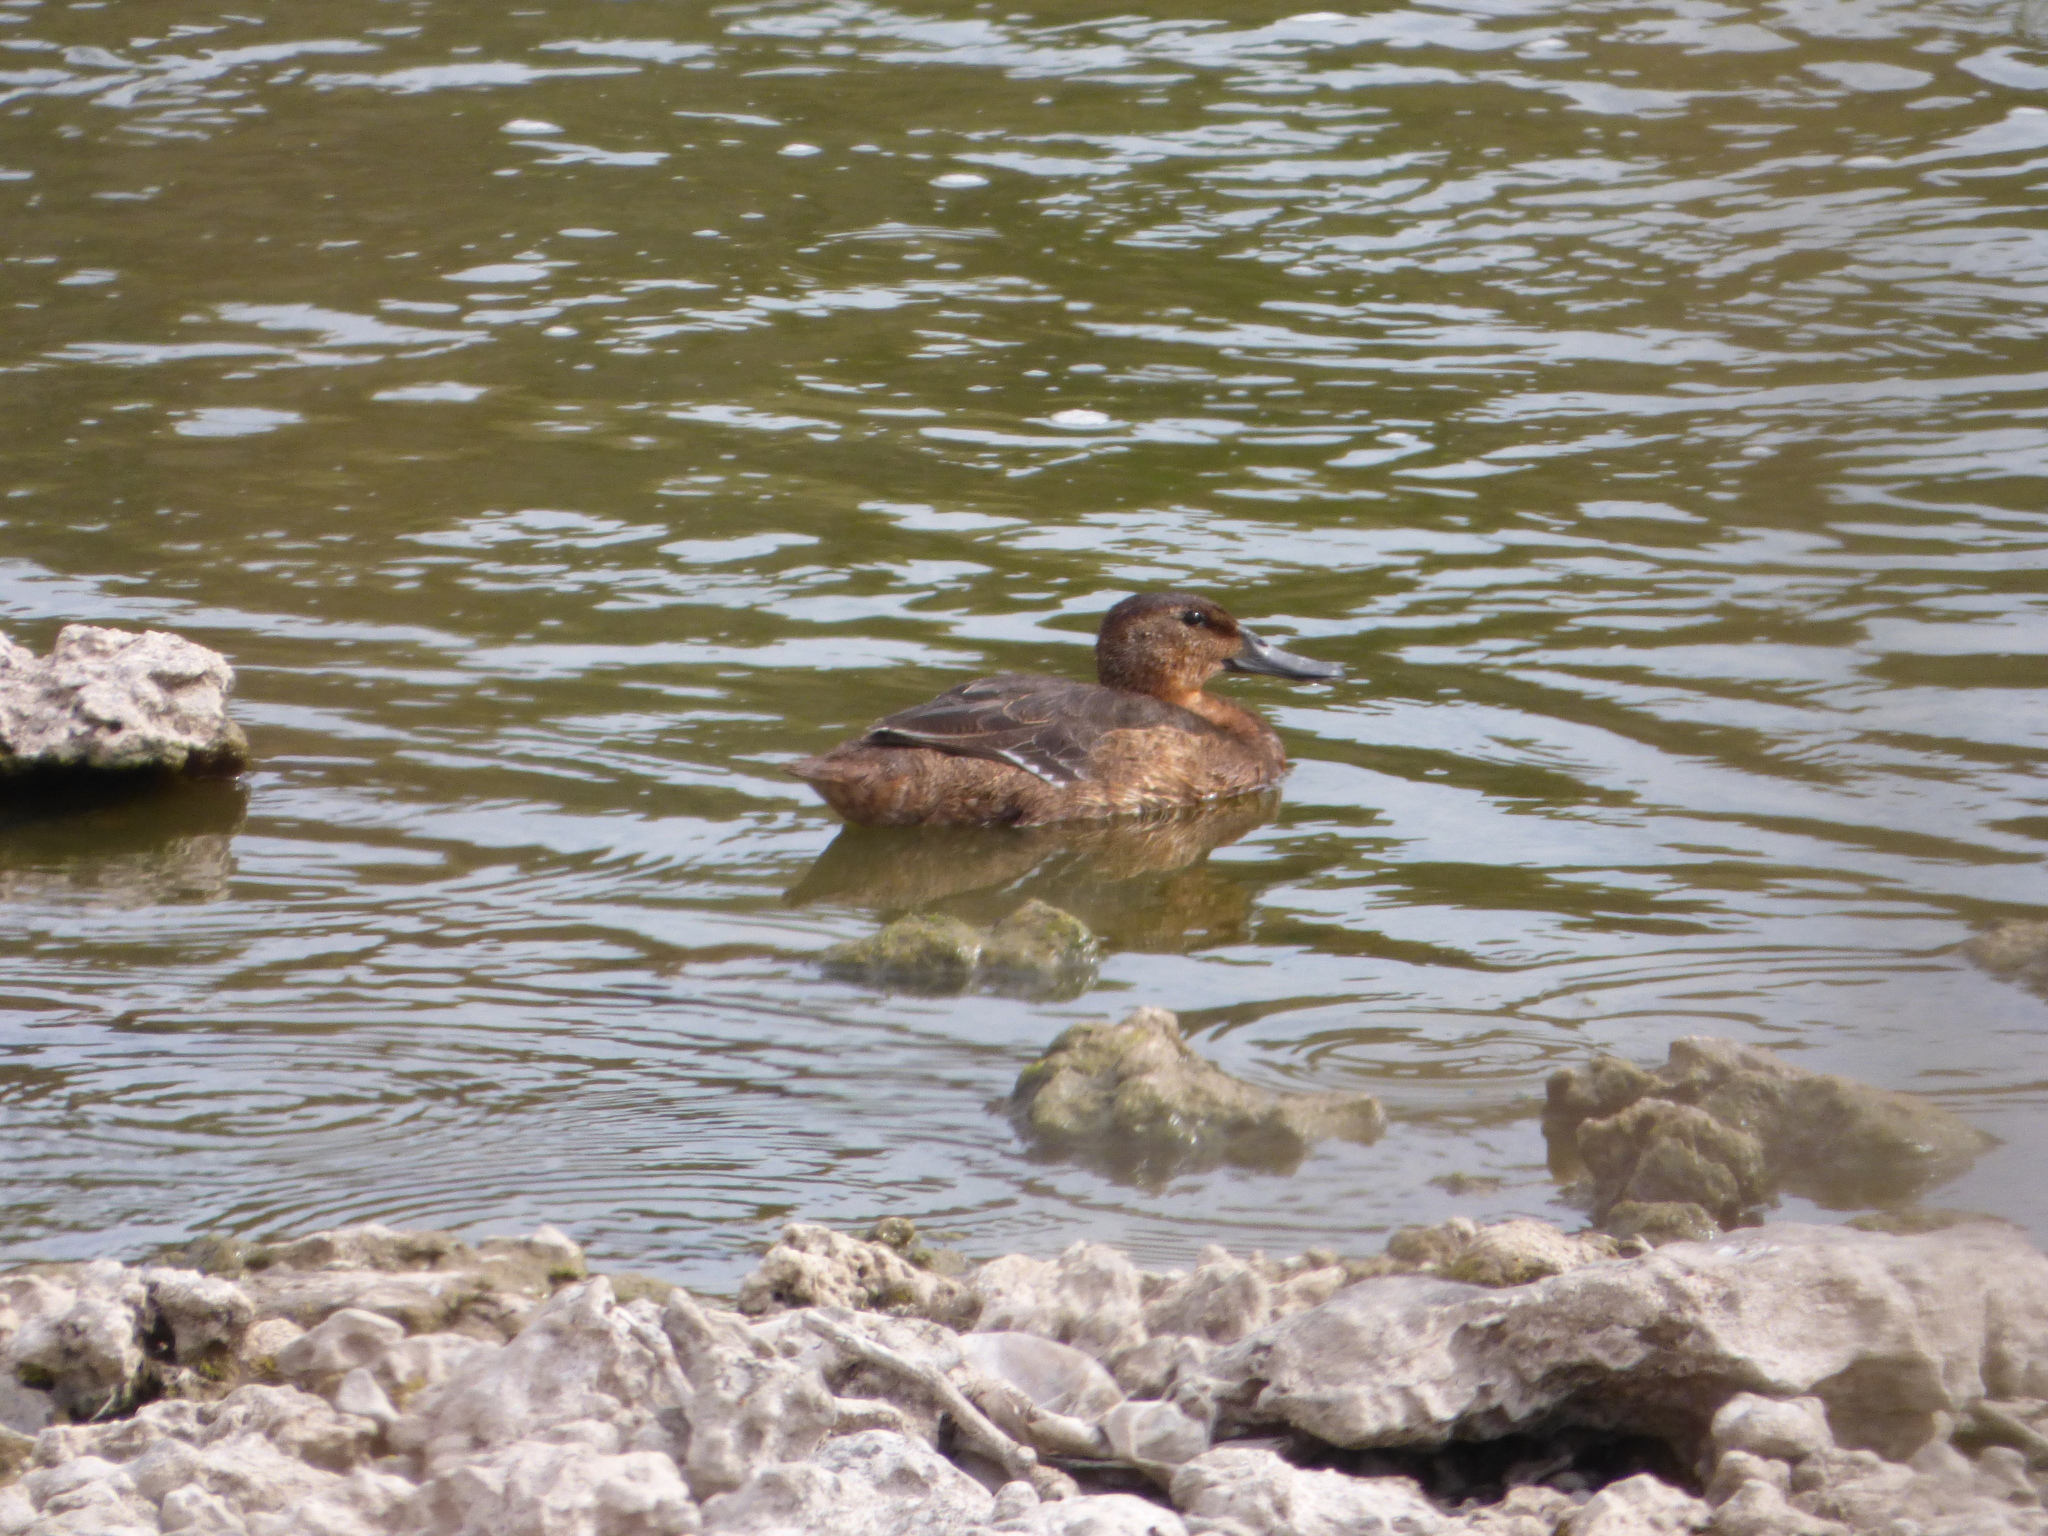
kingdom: Animalia
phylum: Chordata
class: Aves
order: Anseriformes
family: Anatidae
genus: Heteronetta
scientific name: Heteronetta atricapilla
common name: Black-headed duck
